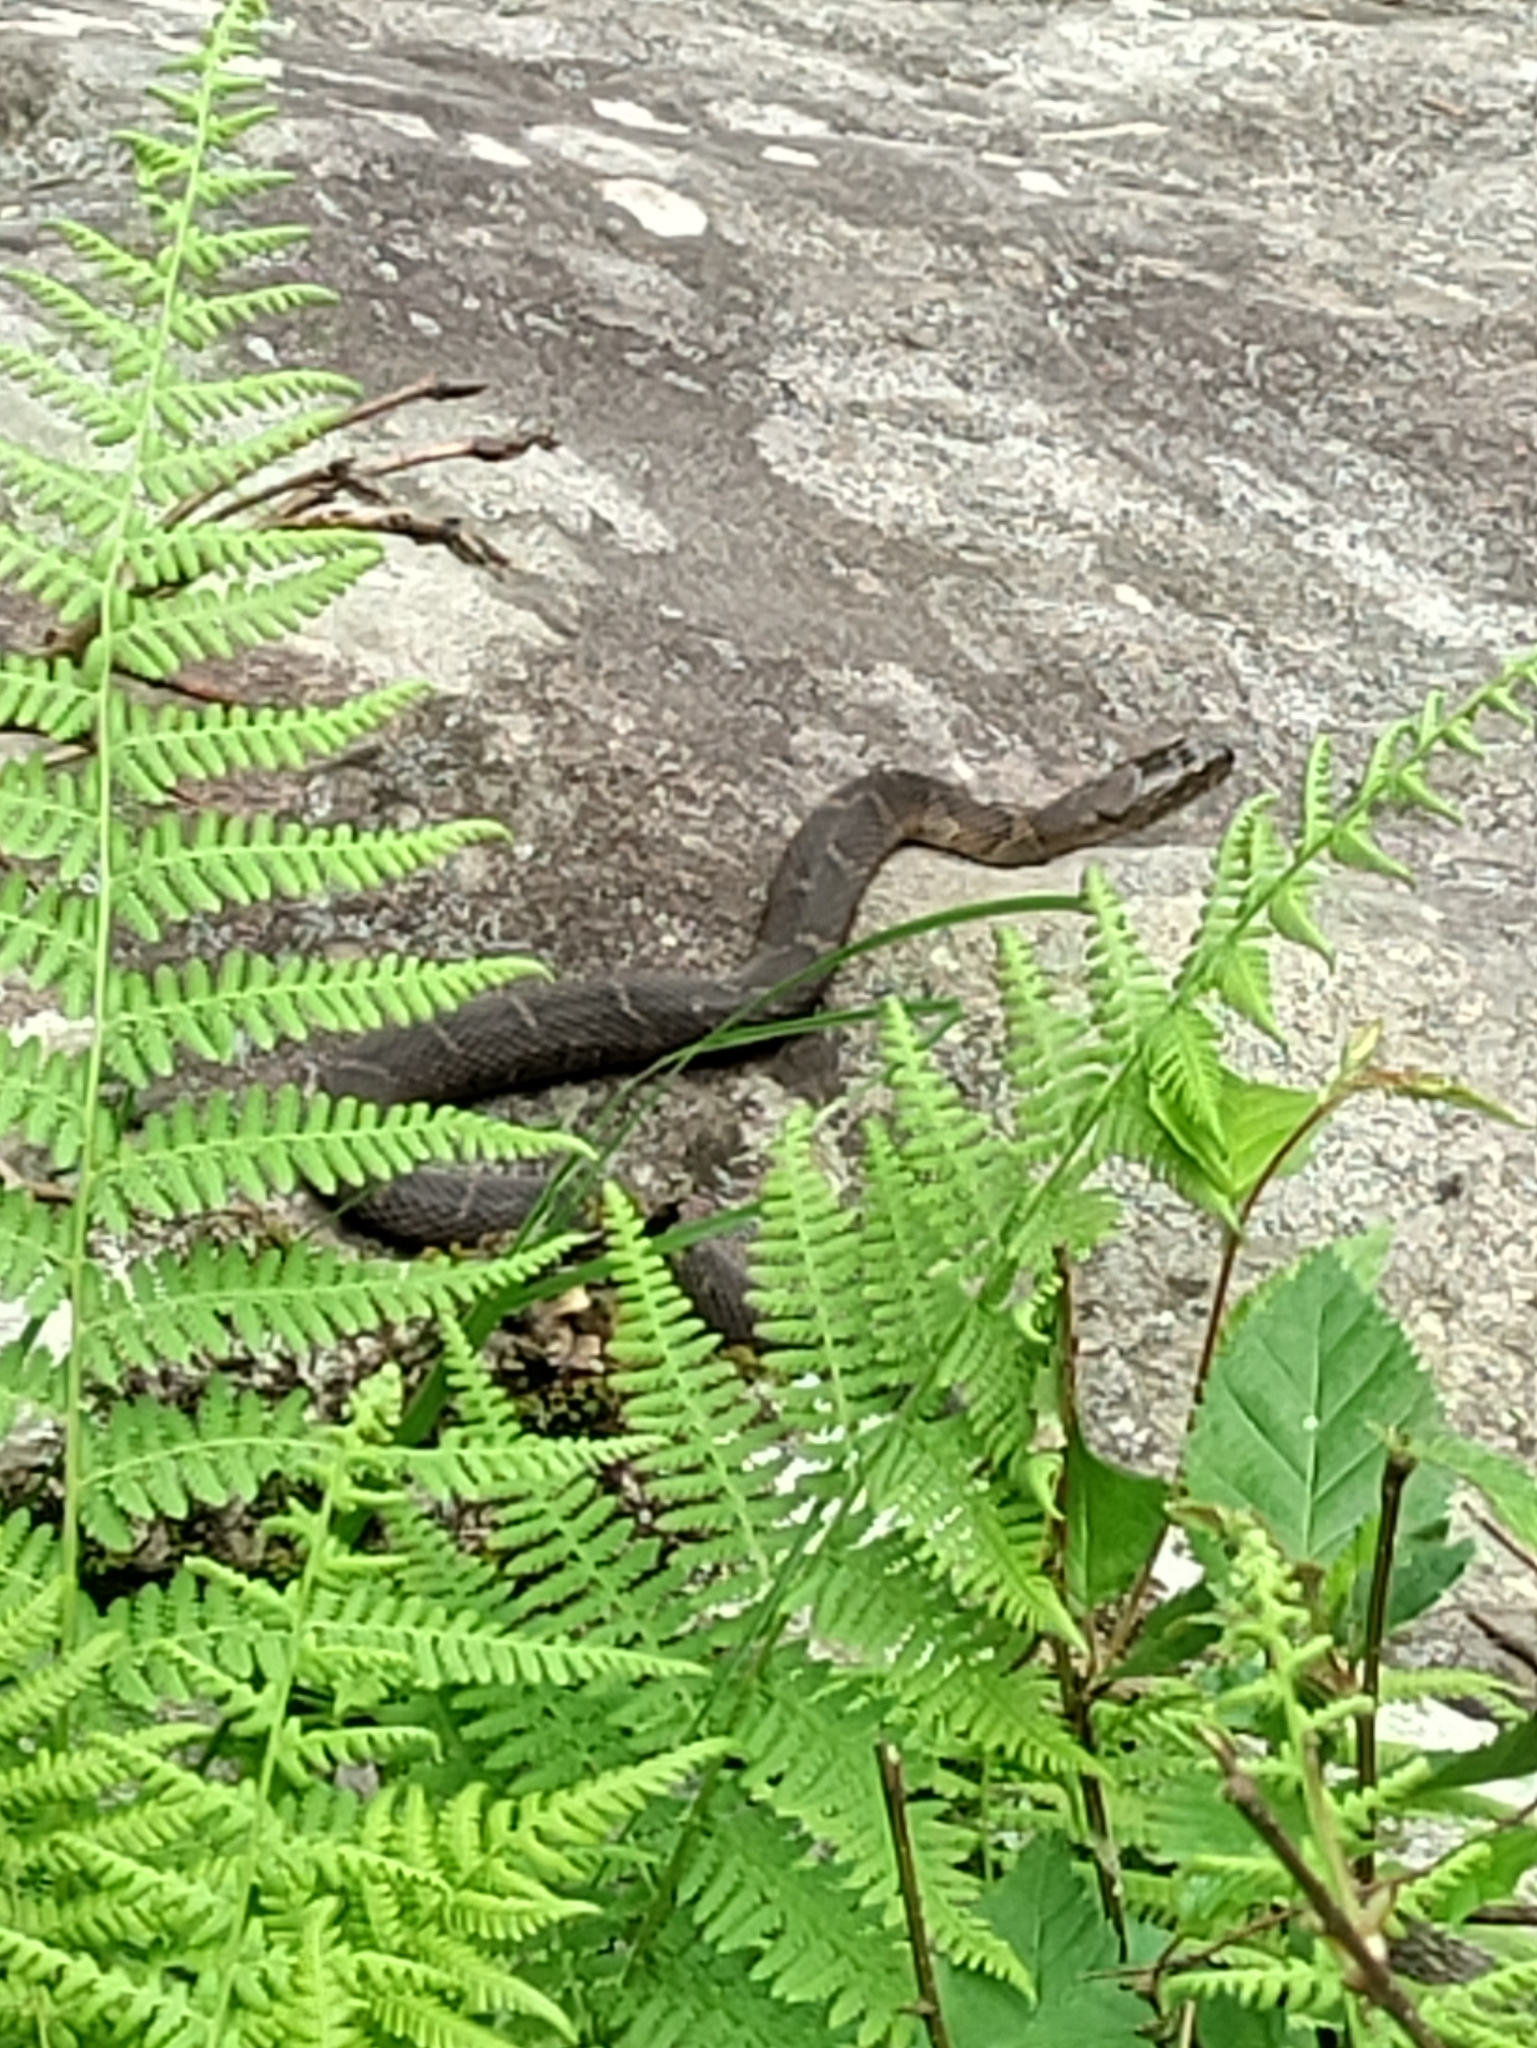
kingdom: Animalia
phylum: Chordata
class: Squamata
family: Colubridae
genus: Nerodia
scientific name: Nerodia sipedon
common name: Northern water snake
